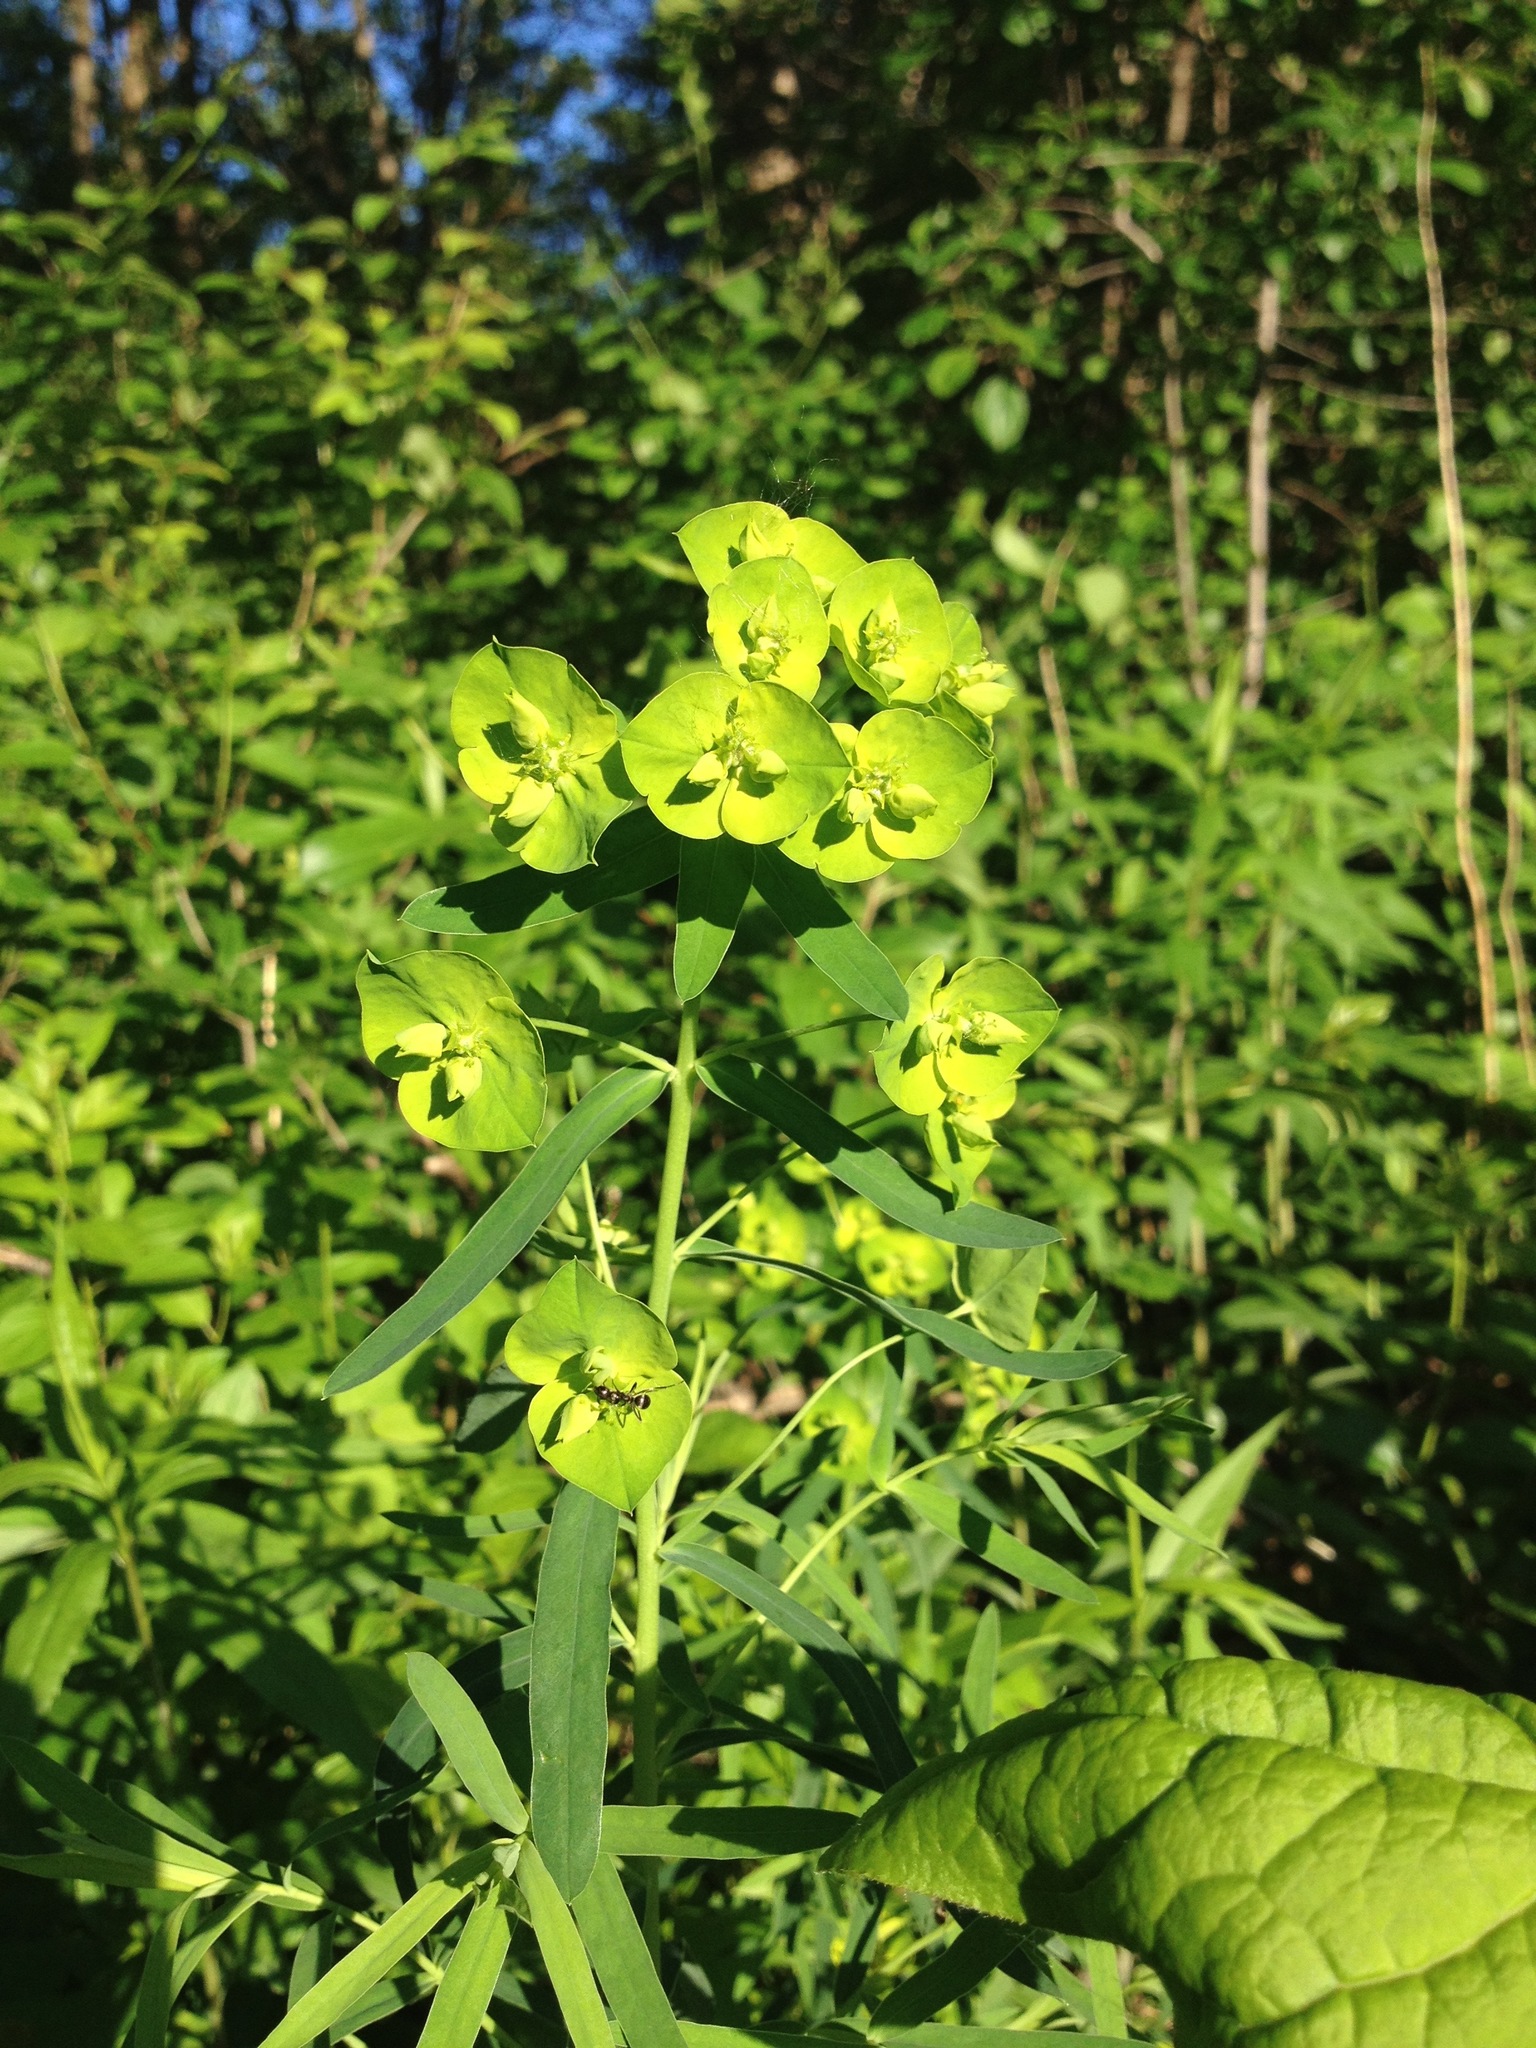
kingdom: Plantae
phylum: Tracheophyta
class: Magnoliopsida
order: Malpighiales
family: Euphorbiaceae
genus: Euphorbia
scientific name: Euphorbia virgata
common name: Leafy spurge
